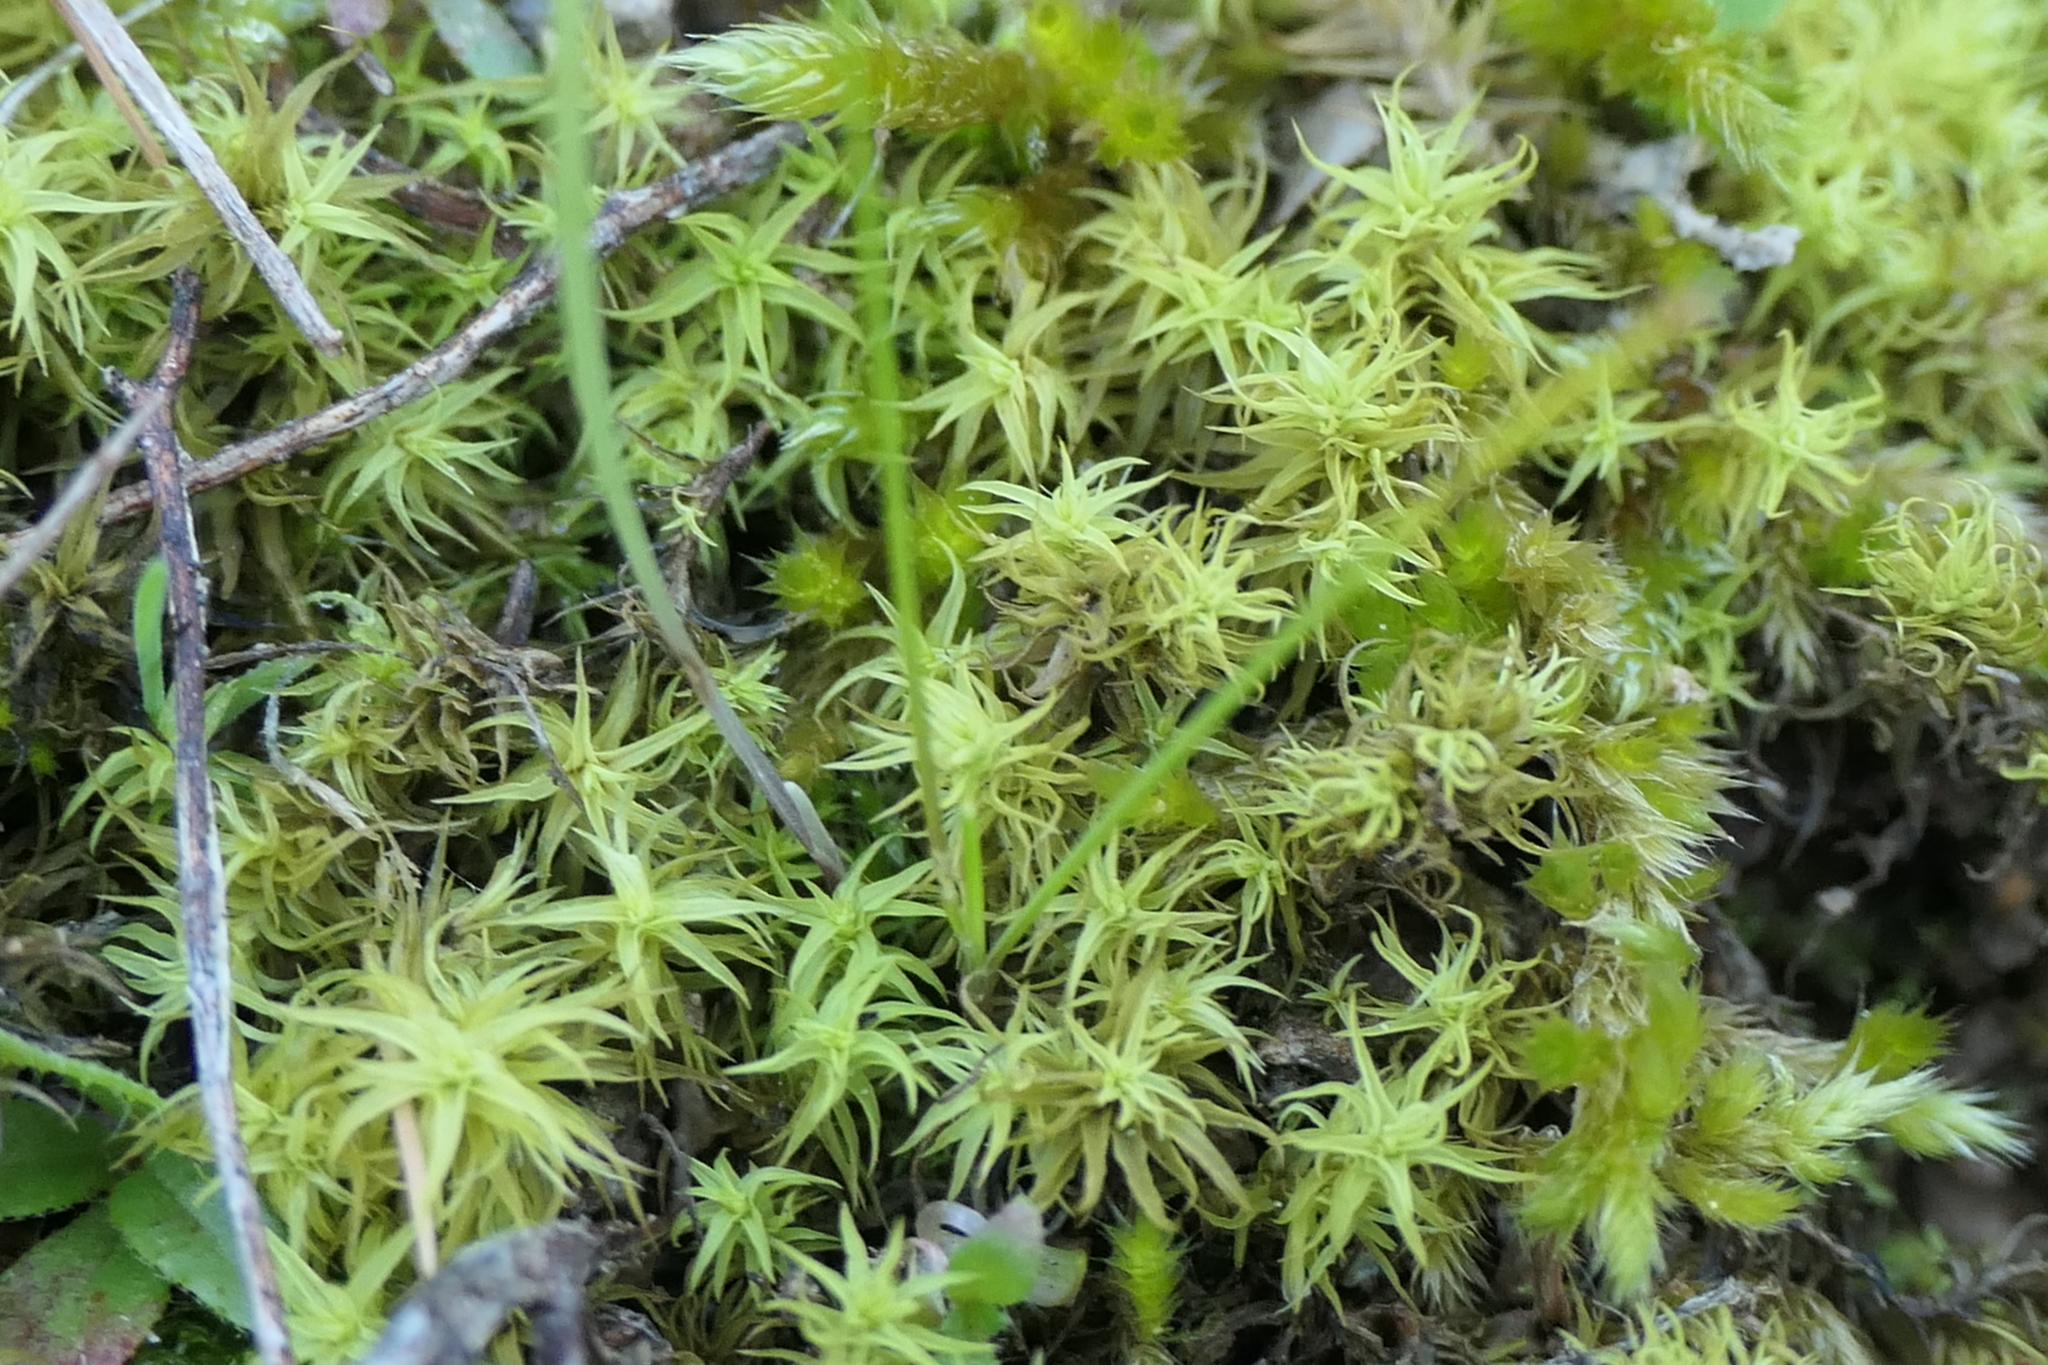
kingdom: Plantae
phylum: Bryophyta
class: Bryopsida
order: Pottiales
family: Pottiaceae
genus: Pleurochaete
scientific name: Pleurochaete squarrosa
